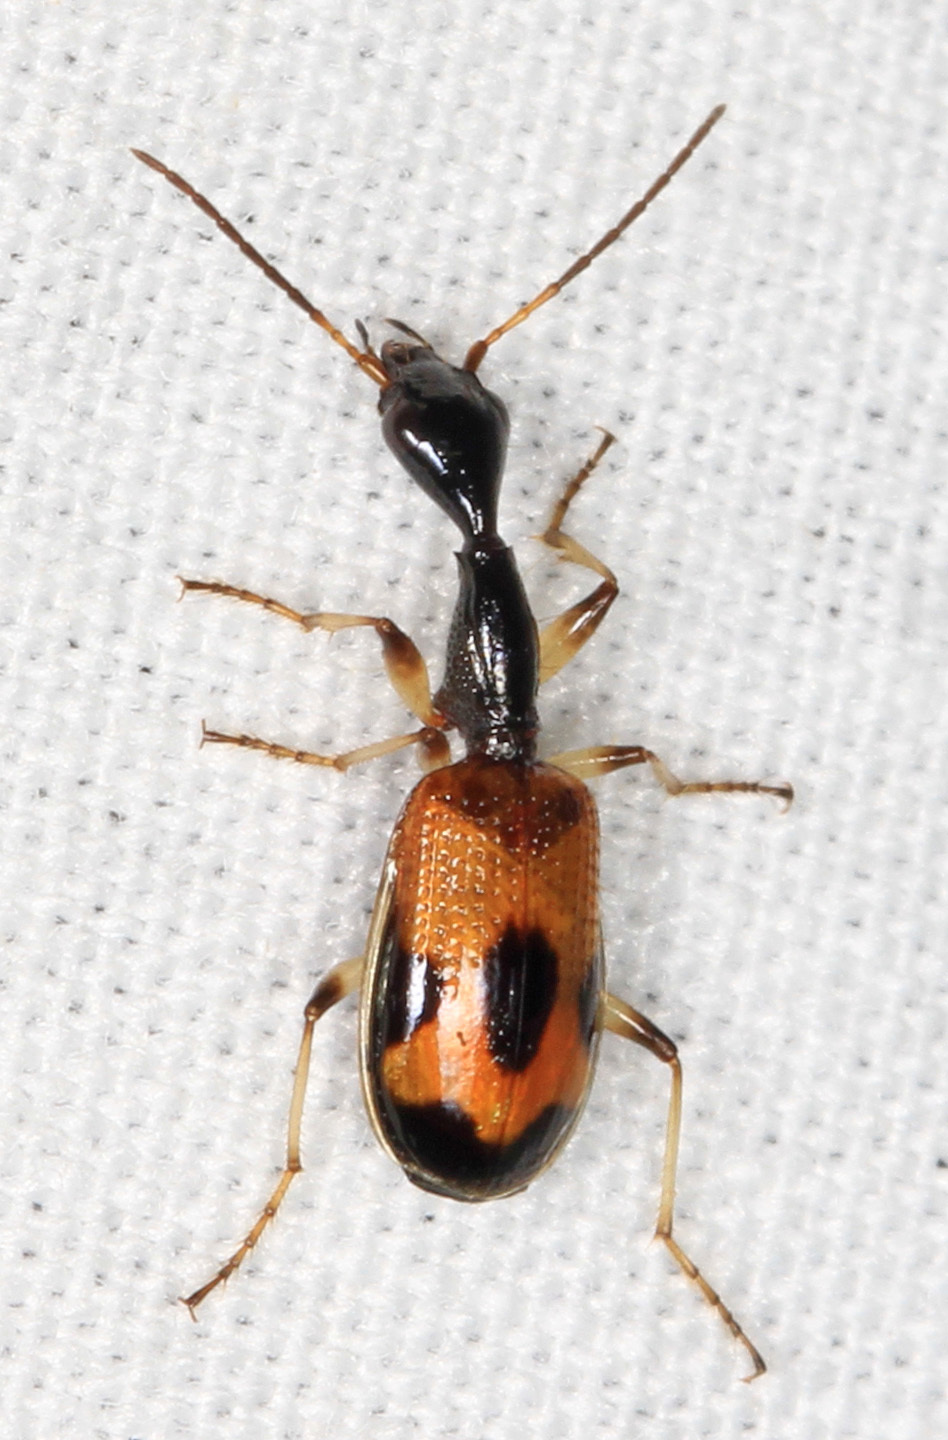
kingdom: Animalia
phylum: Arthropoda
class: Insecta
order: Coleoptera
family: Carabidae
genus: Colliuris
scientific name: Colliuris pensylvanica
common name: Long-necked ground beetle
